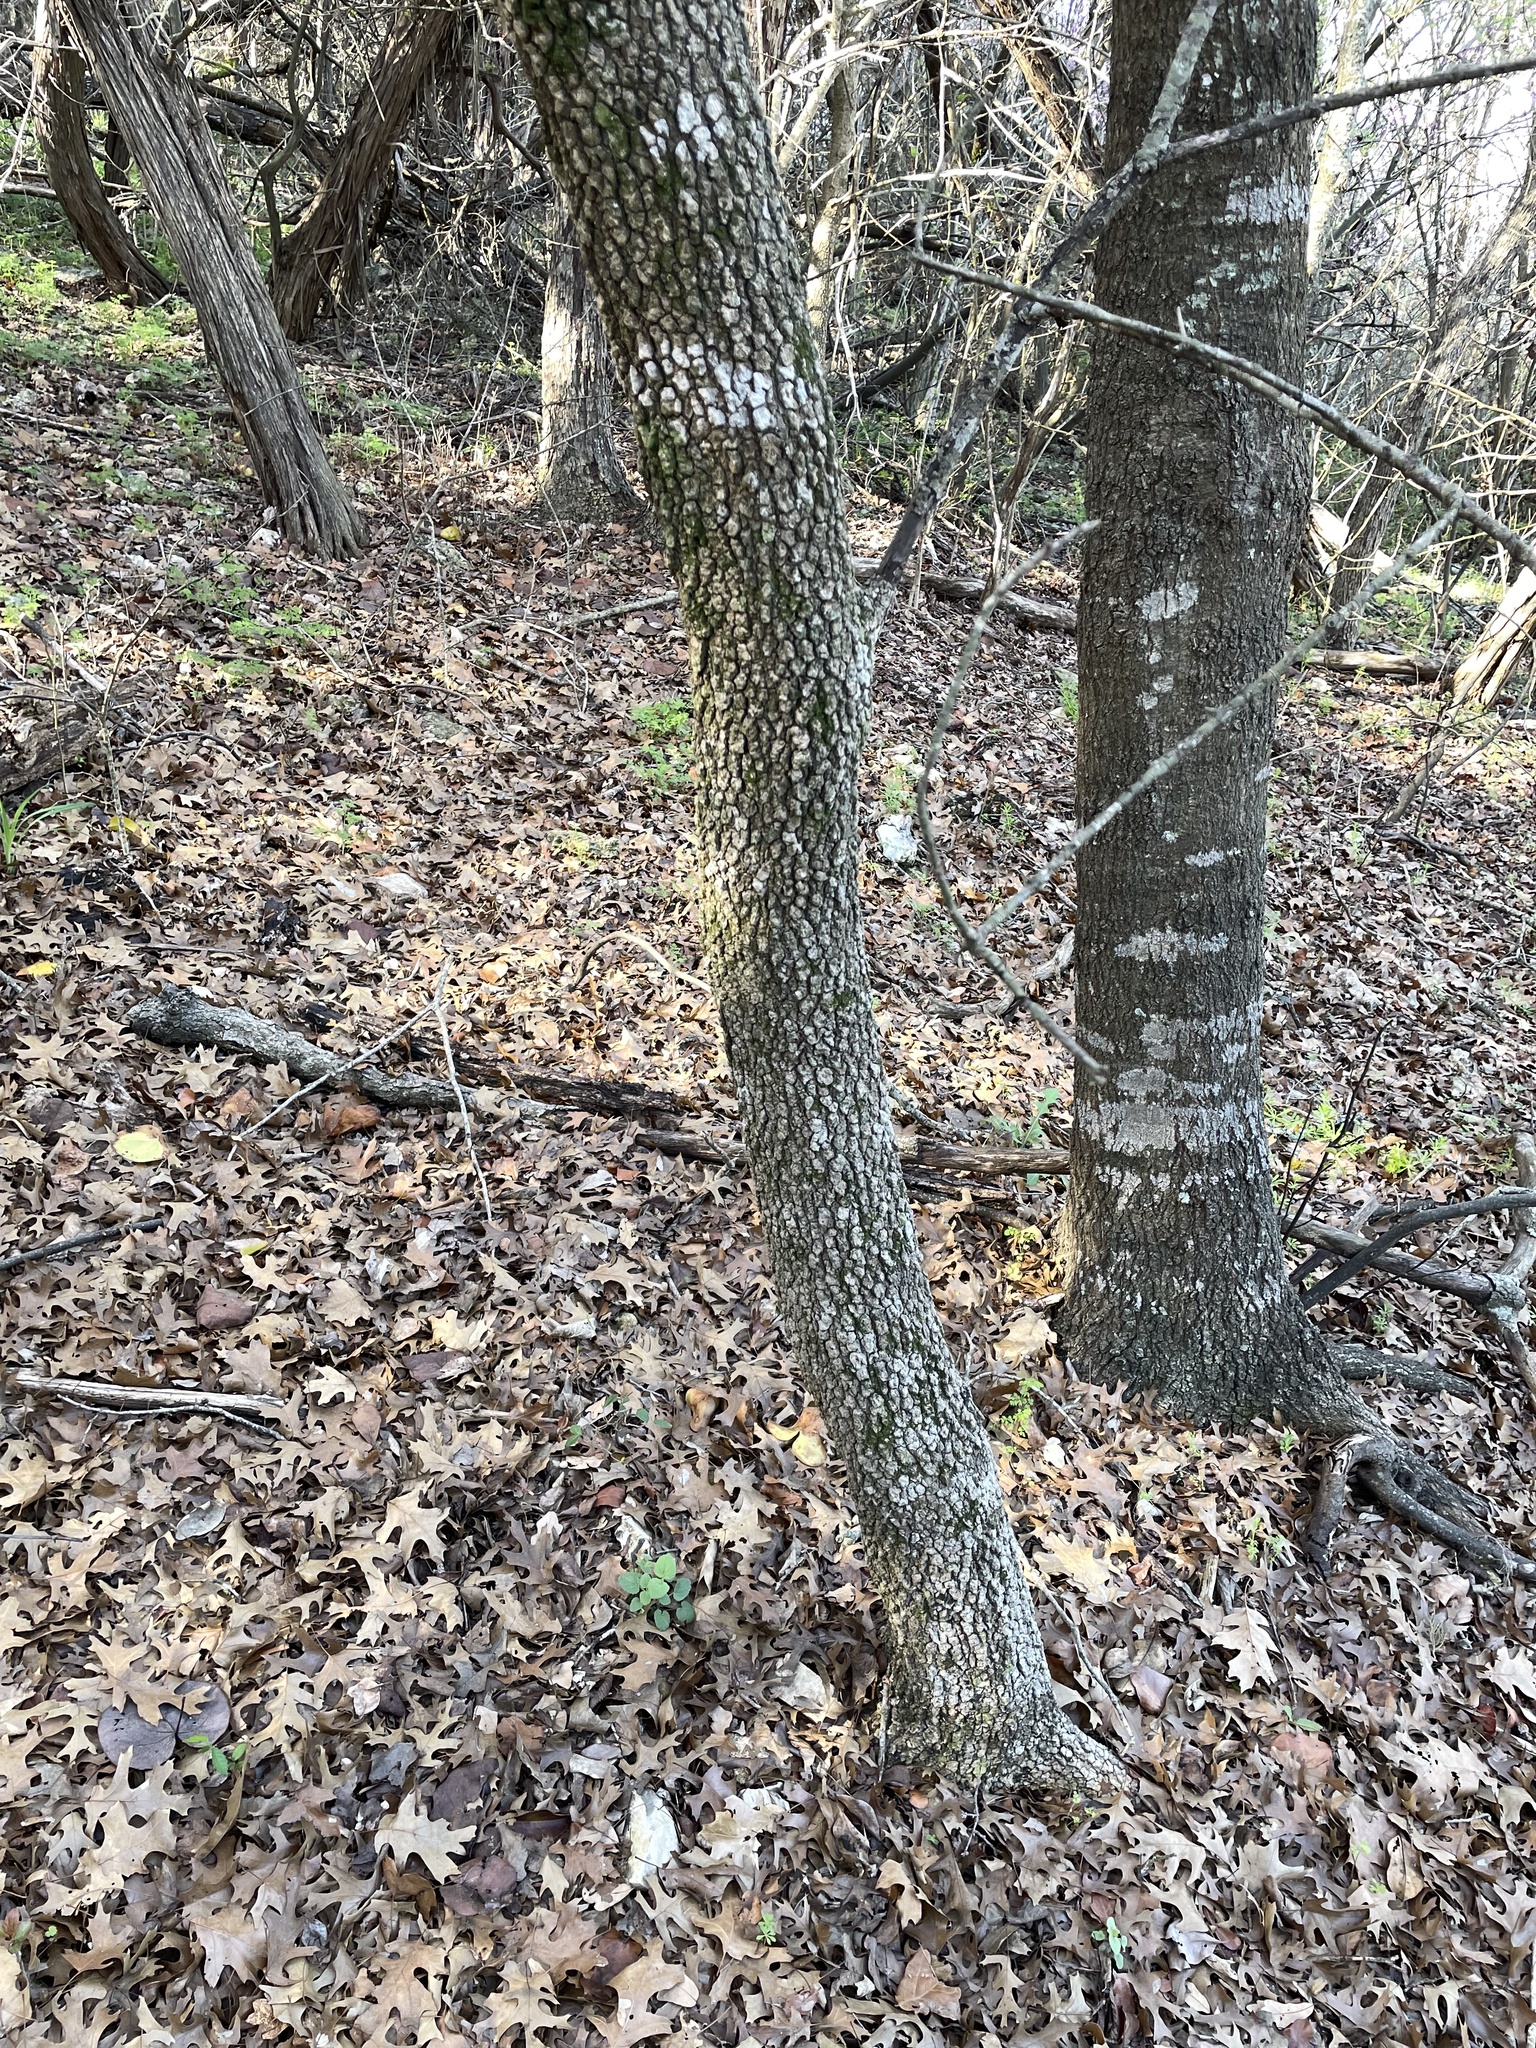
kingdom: Plantae
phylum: Tracheophyta
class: Magnoliopsida
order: Dipsacales
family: Viburnaceae
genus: Viburnum
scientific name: Viburnum rufidulum
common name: Blue haw
